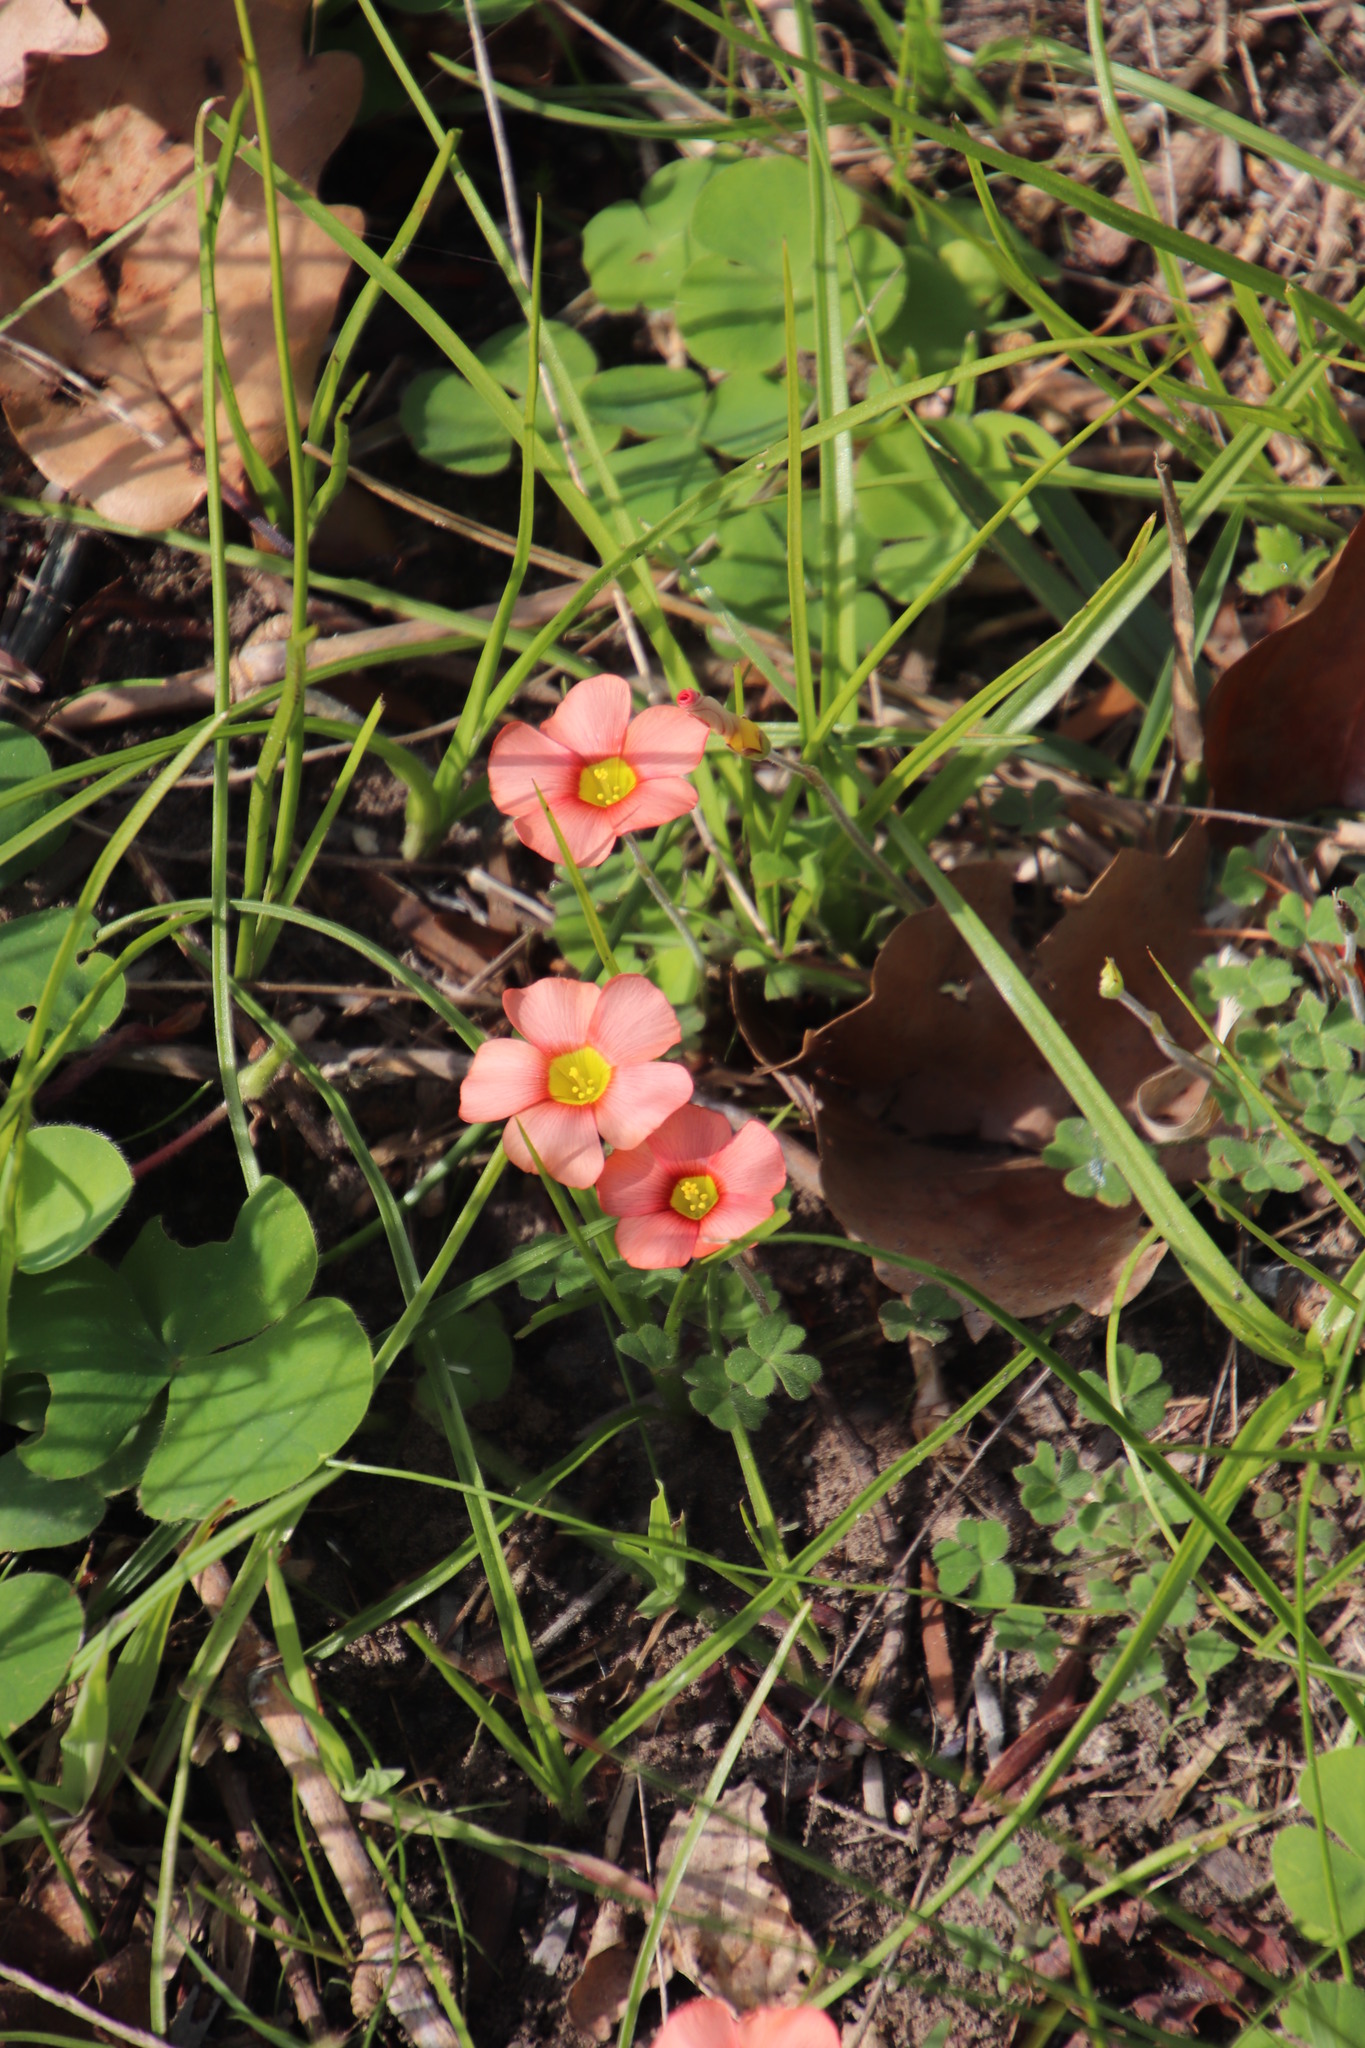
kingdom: Plantae
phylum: Tracheophyta
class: Magnoliopsida
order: Oxalidales
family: Oxalidaceae
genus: Oxalis
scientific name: Oxalis obtusa
